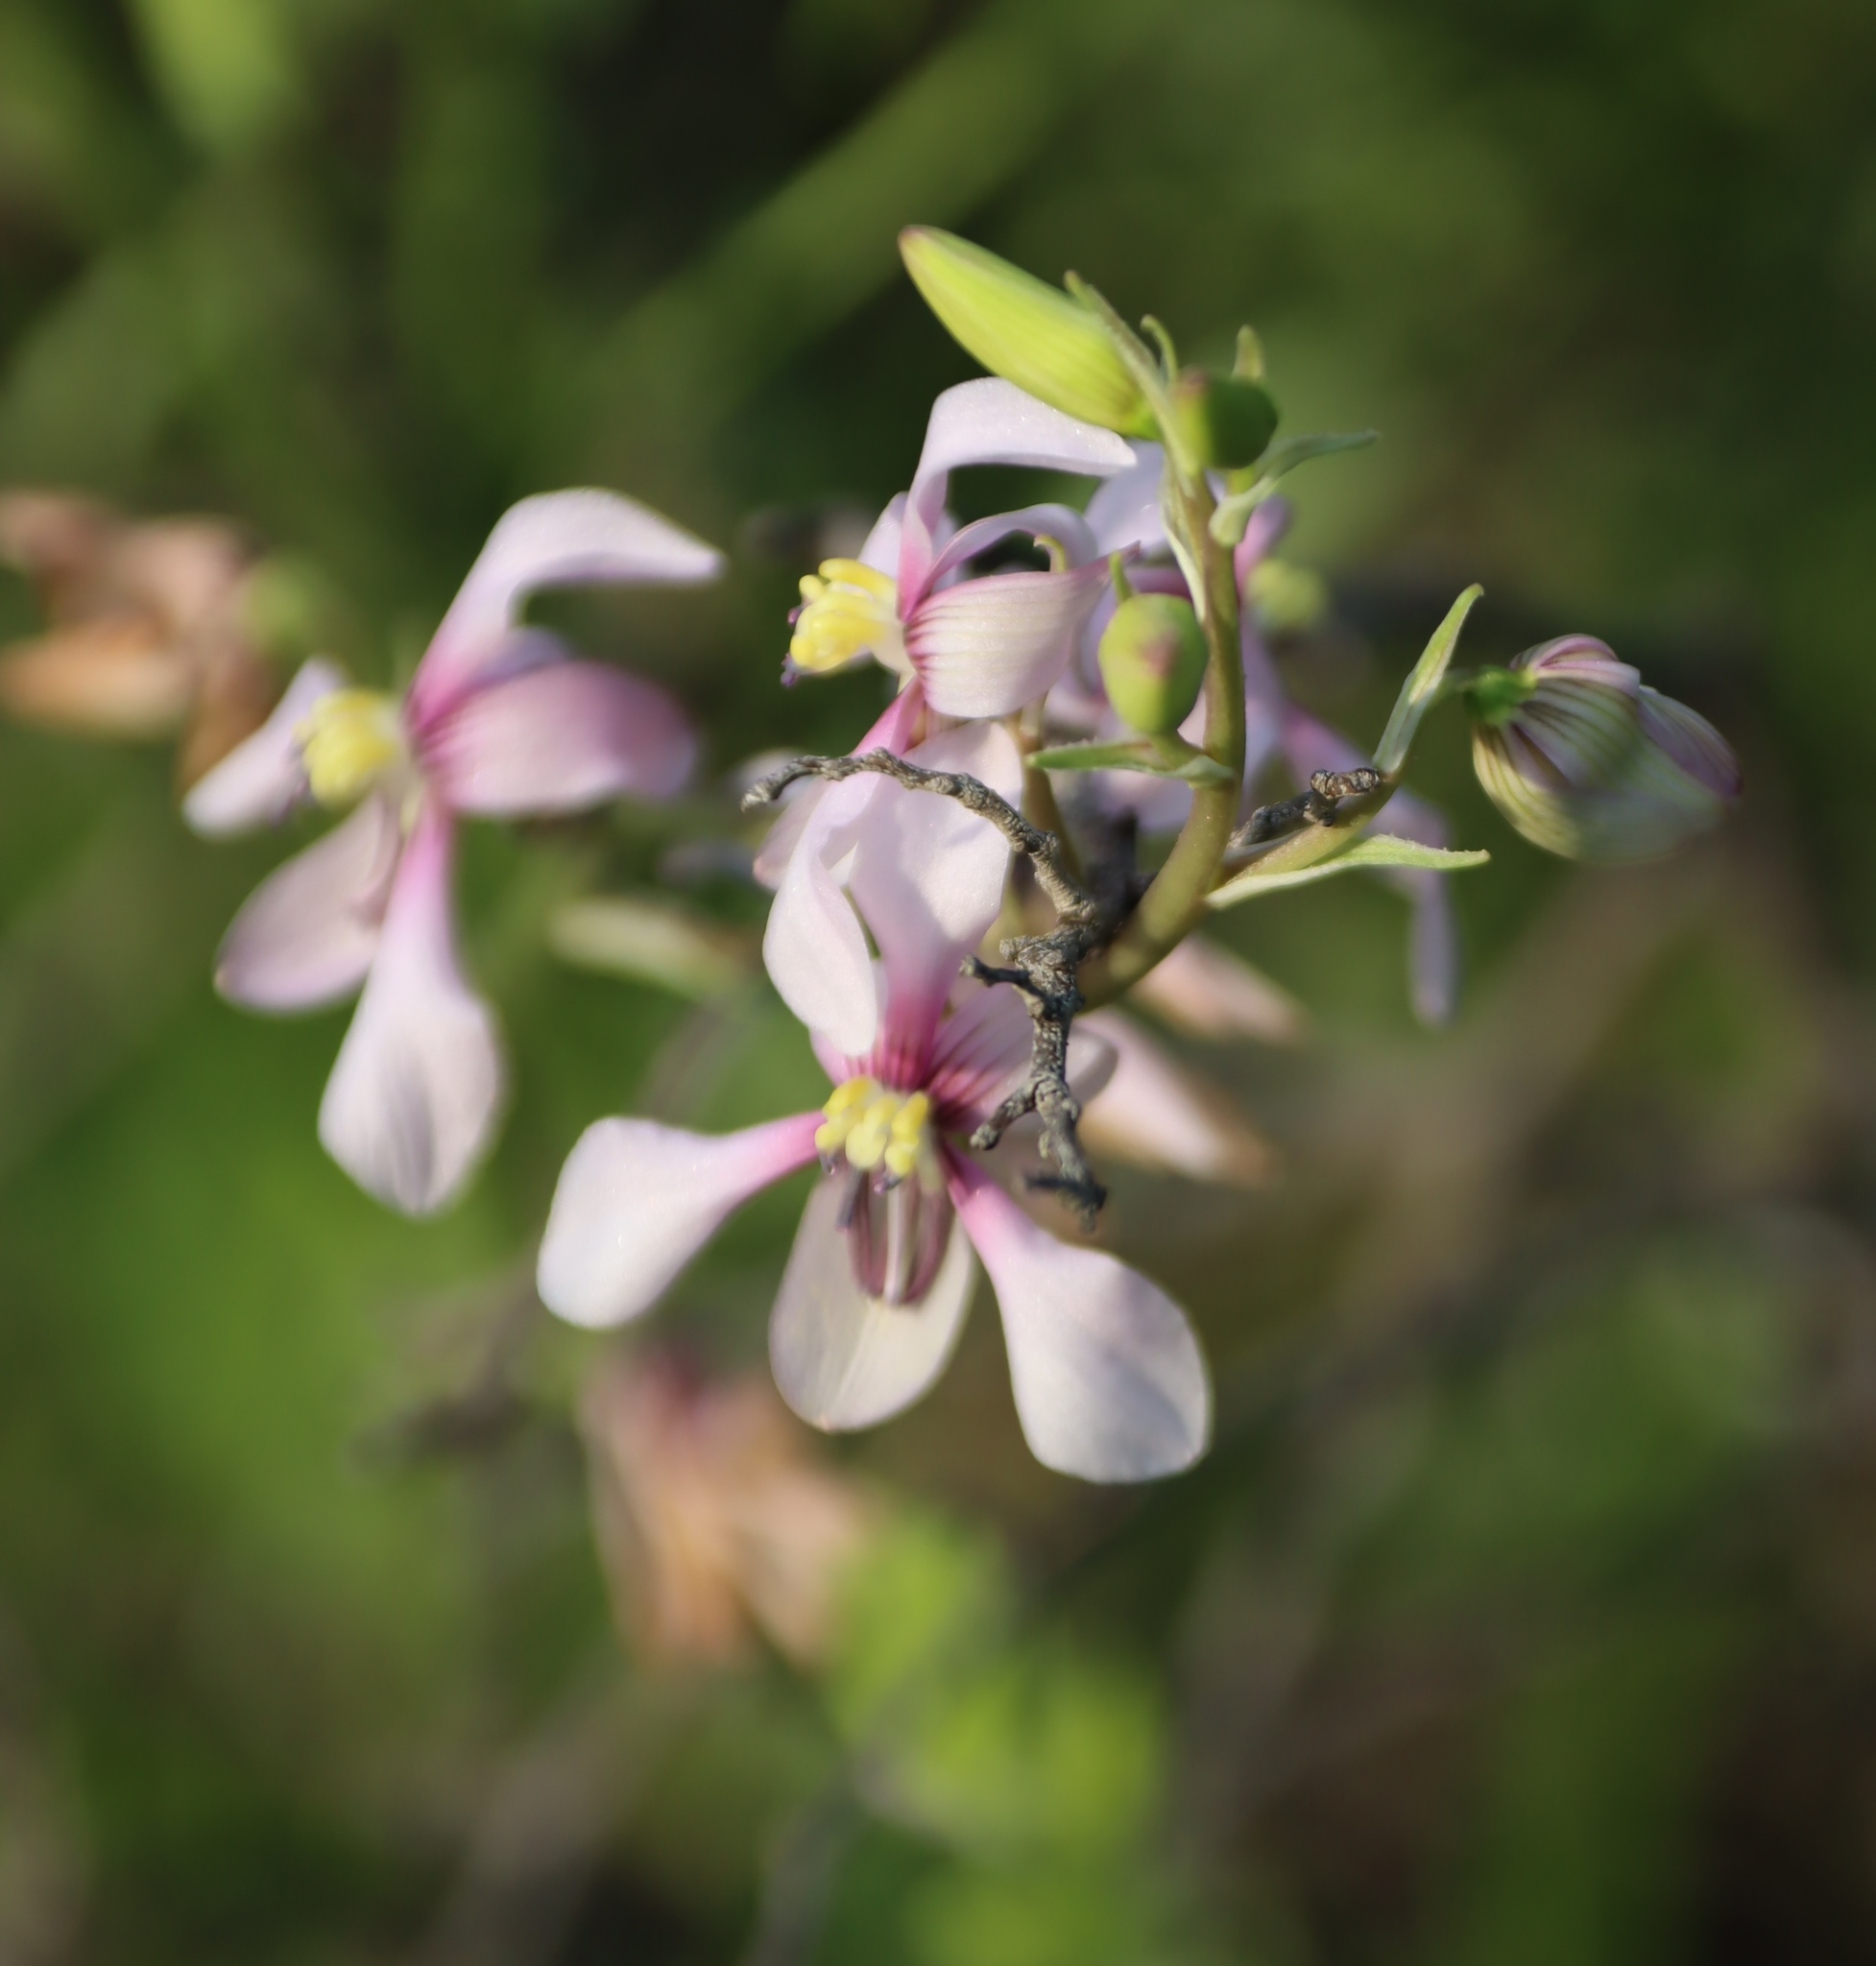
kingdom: Plantae
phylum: Tracheophyta
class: Liliopsida
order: Asparagales
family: Tecophilaeaceae
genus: Cyanella
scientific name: Cyanella orchidiformis
